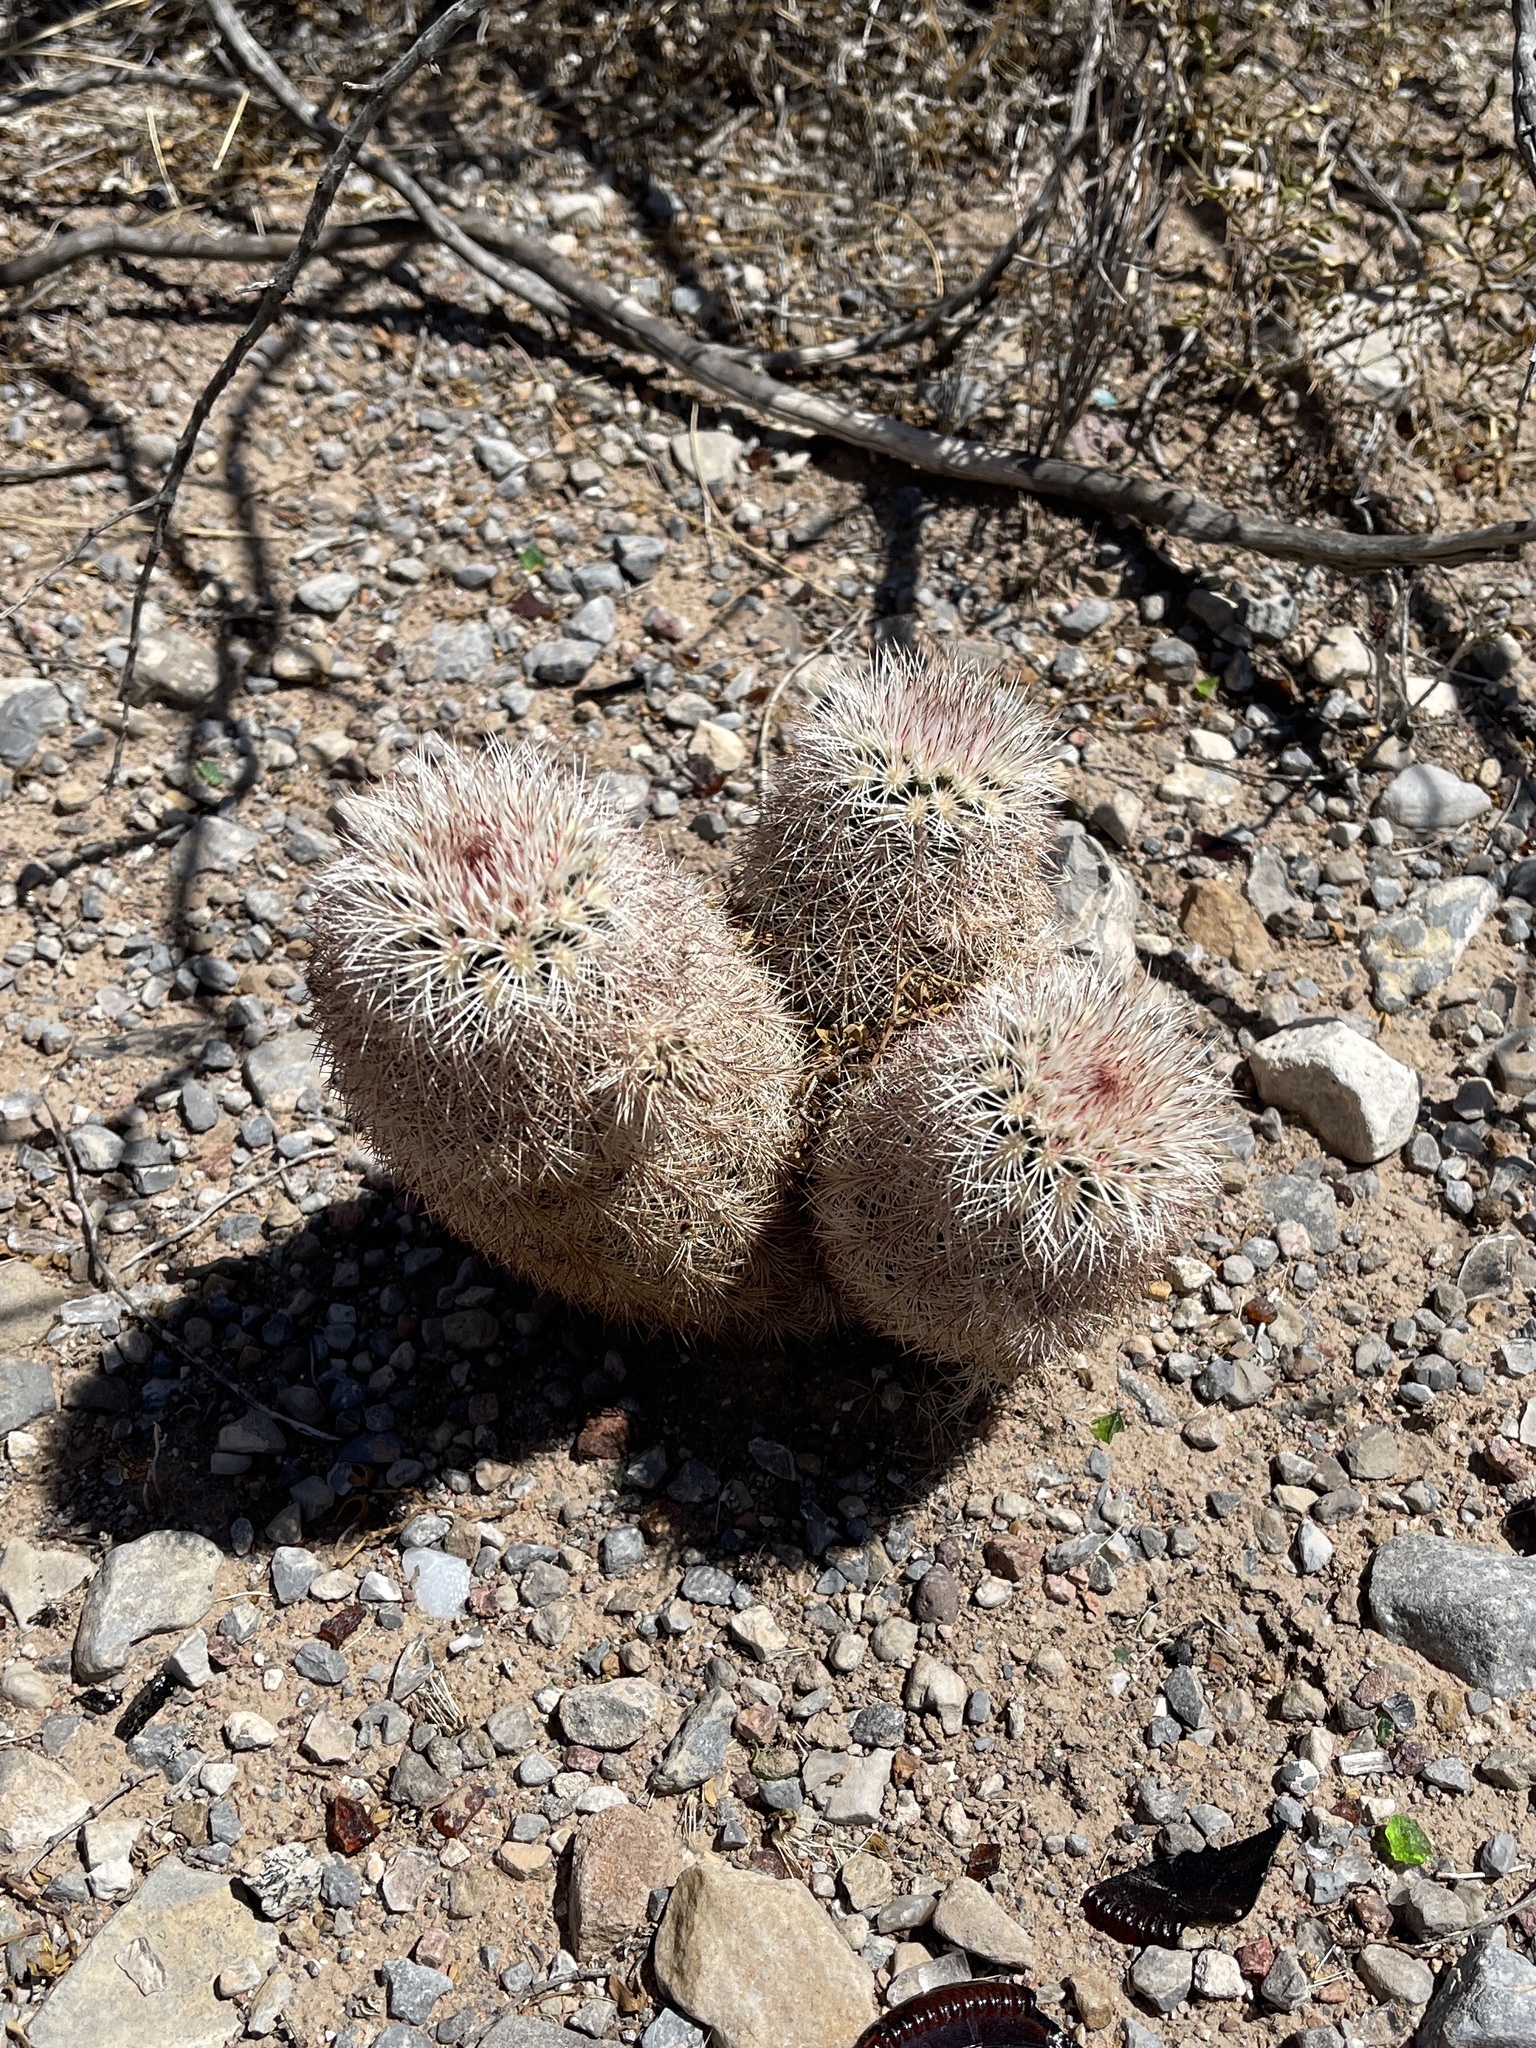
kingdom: Plantae
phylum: Tracheophyta
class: Magnoliopsida
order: Caryophyllales
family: Cactaceae
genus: Echinocereus
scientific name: Echinocereus dasyacanthus
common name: Spiny hedgehog cactus
